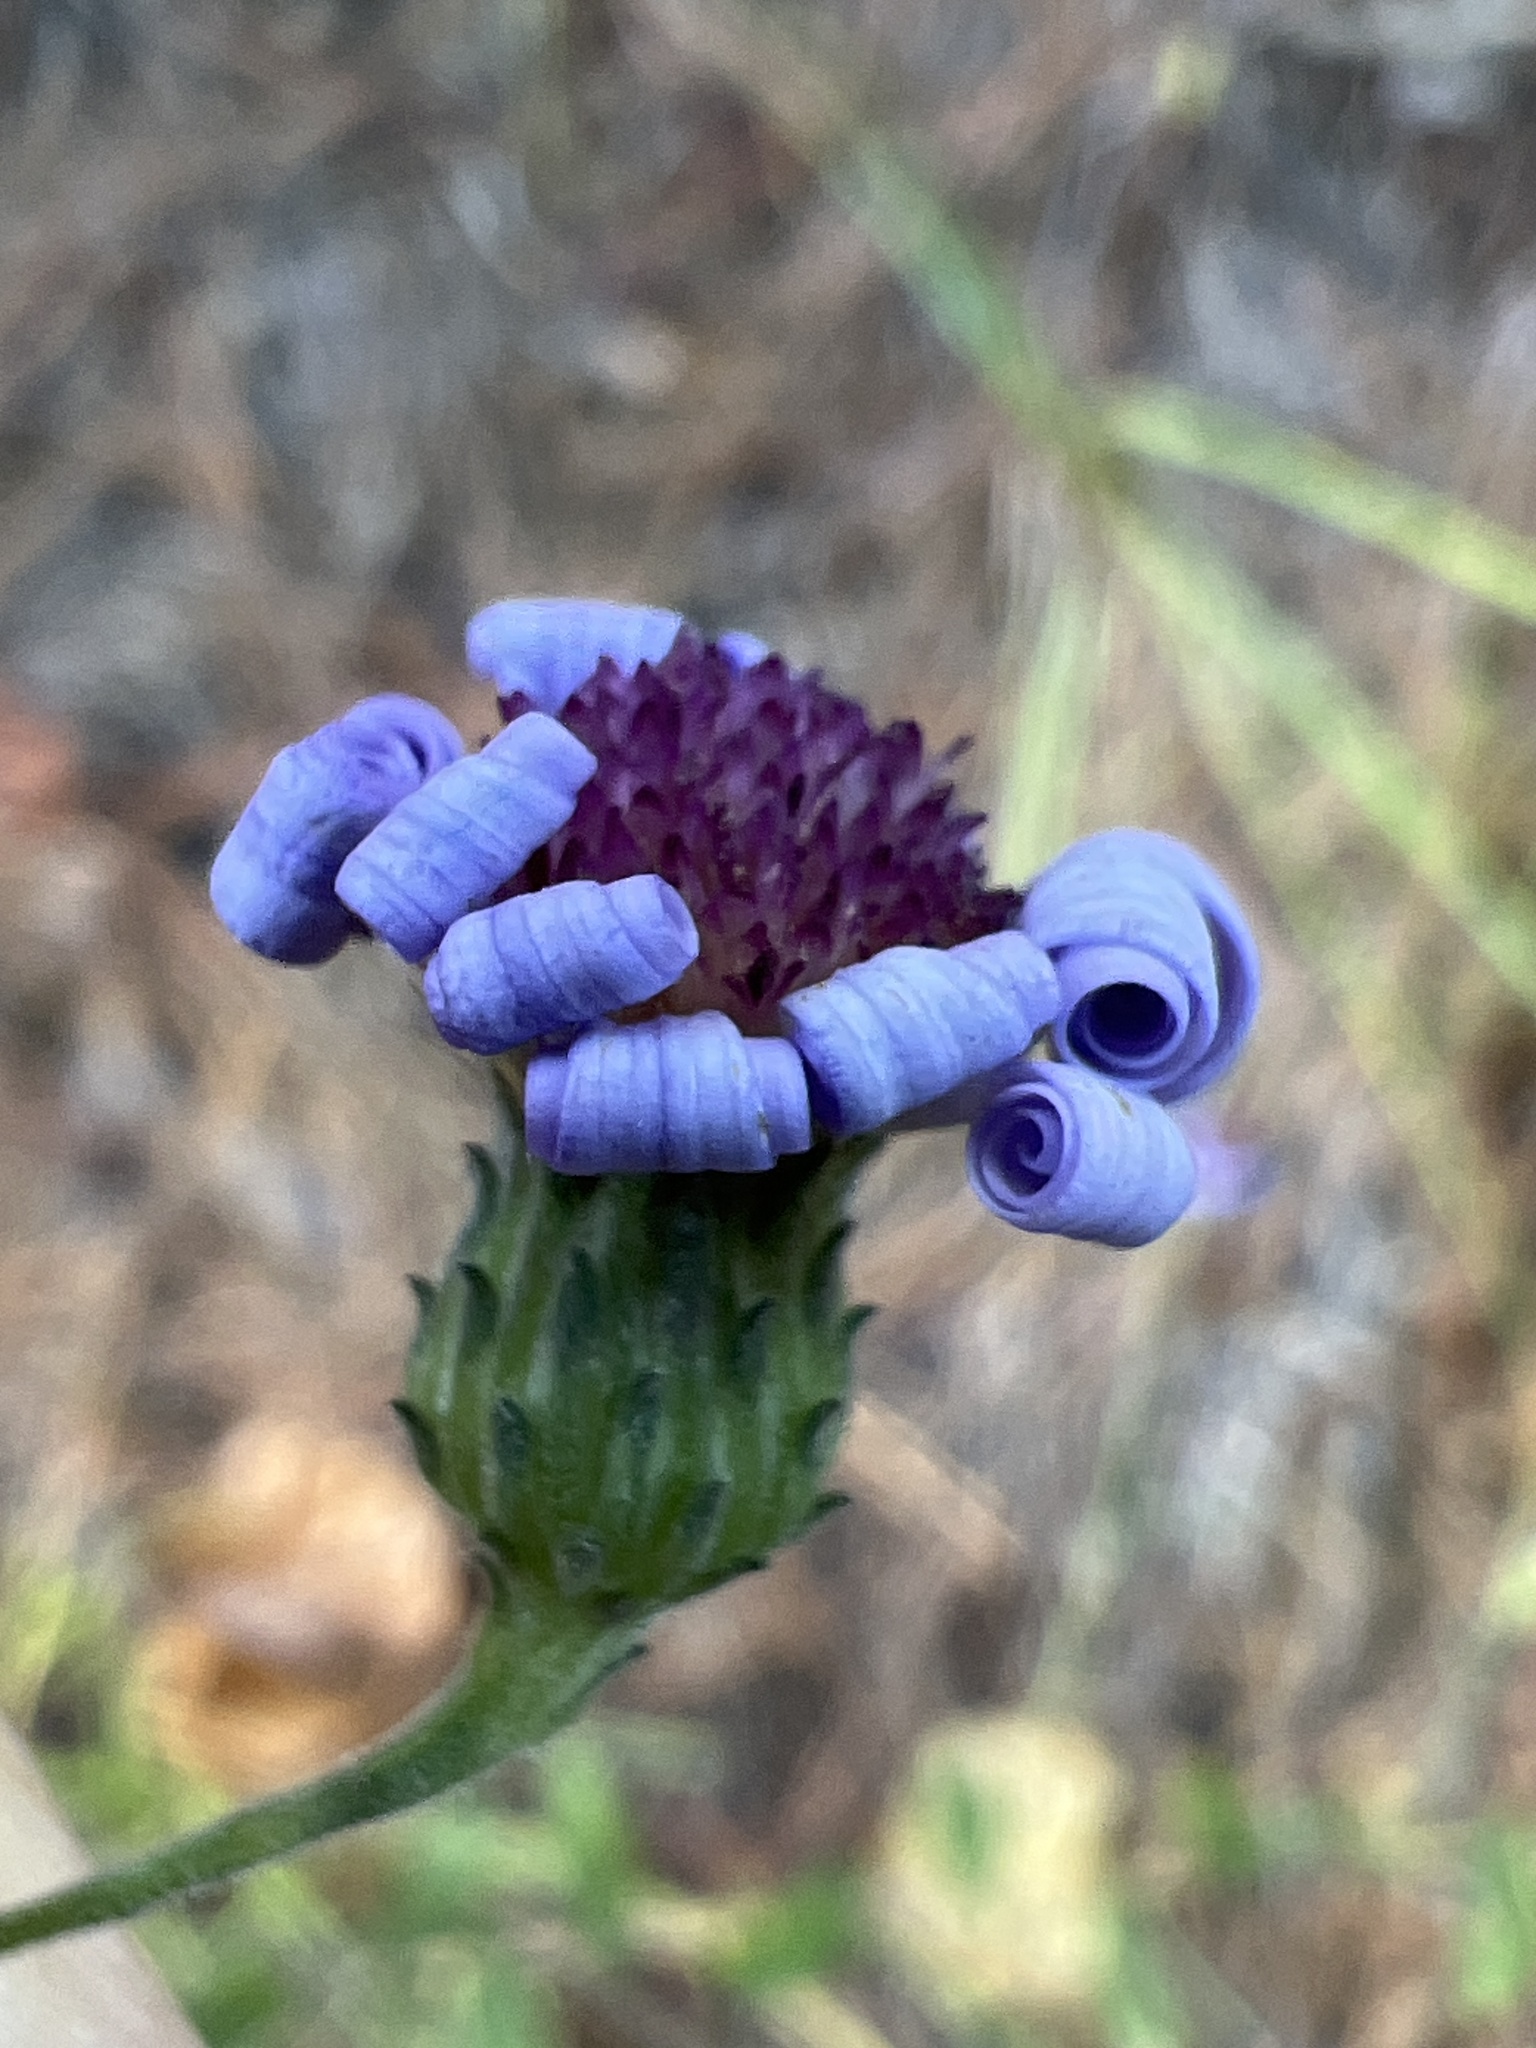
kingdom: Plantae
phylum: Tracheophyta
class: Magnoliopsida
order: Asterales
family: Asteraceae
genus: Symphyotrichum
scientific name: Symphyotrichum patens
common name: Late purple aster
